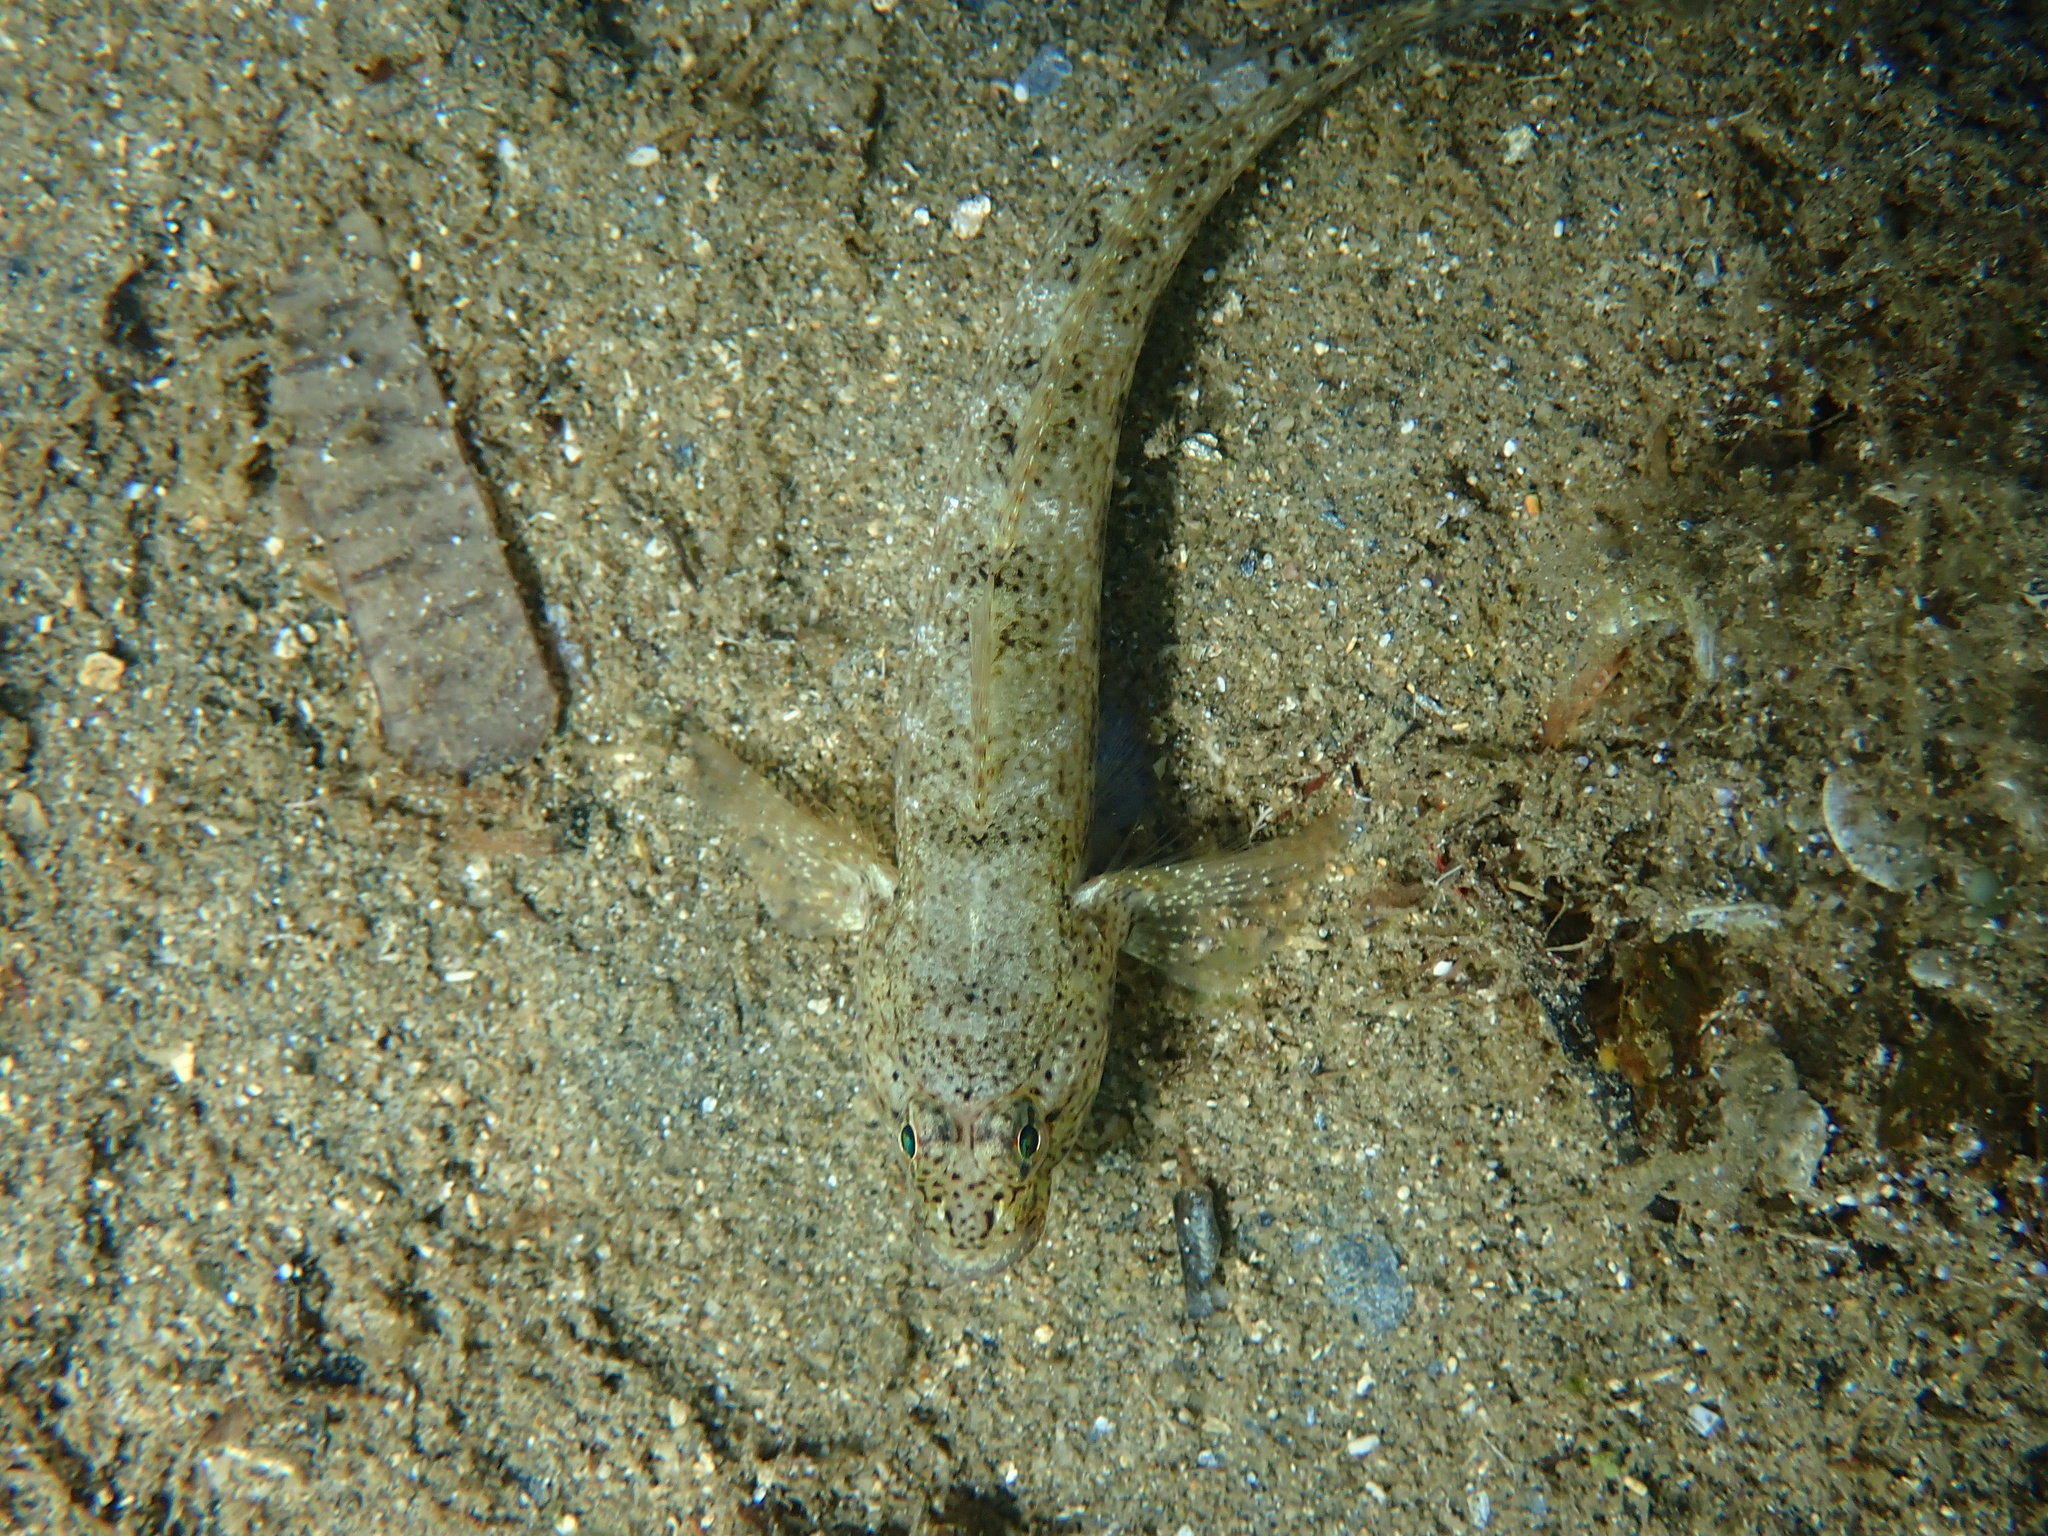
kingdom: Animalia
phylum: Chordata
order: Perciformes
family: Gobiidae
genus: Gobius
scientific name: Gobius incognitus
